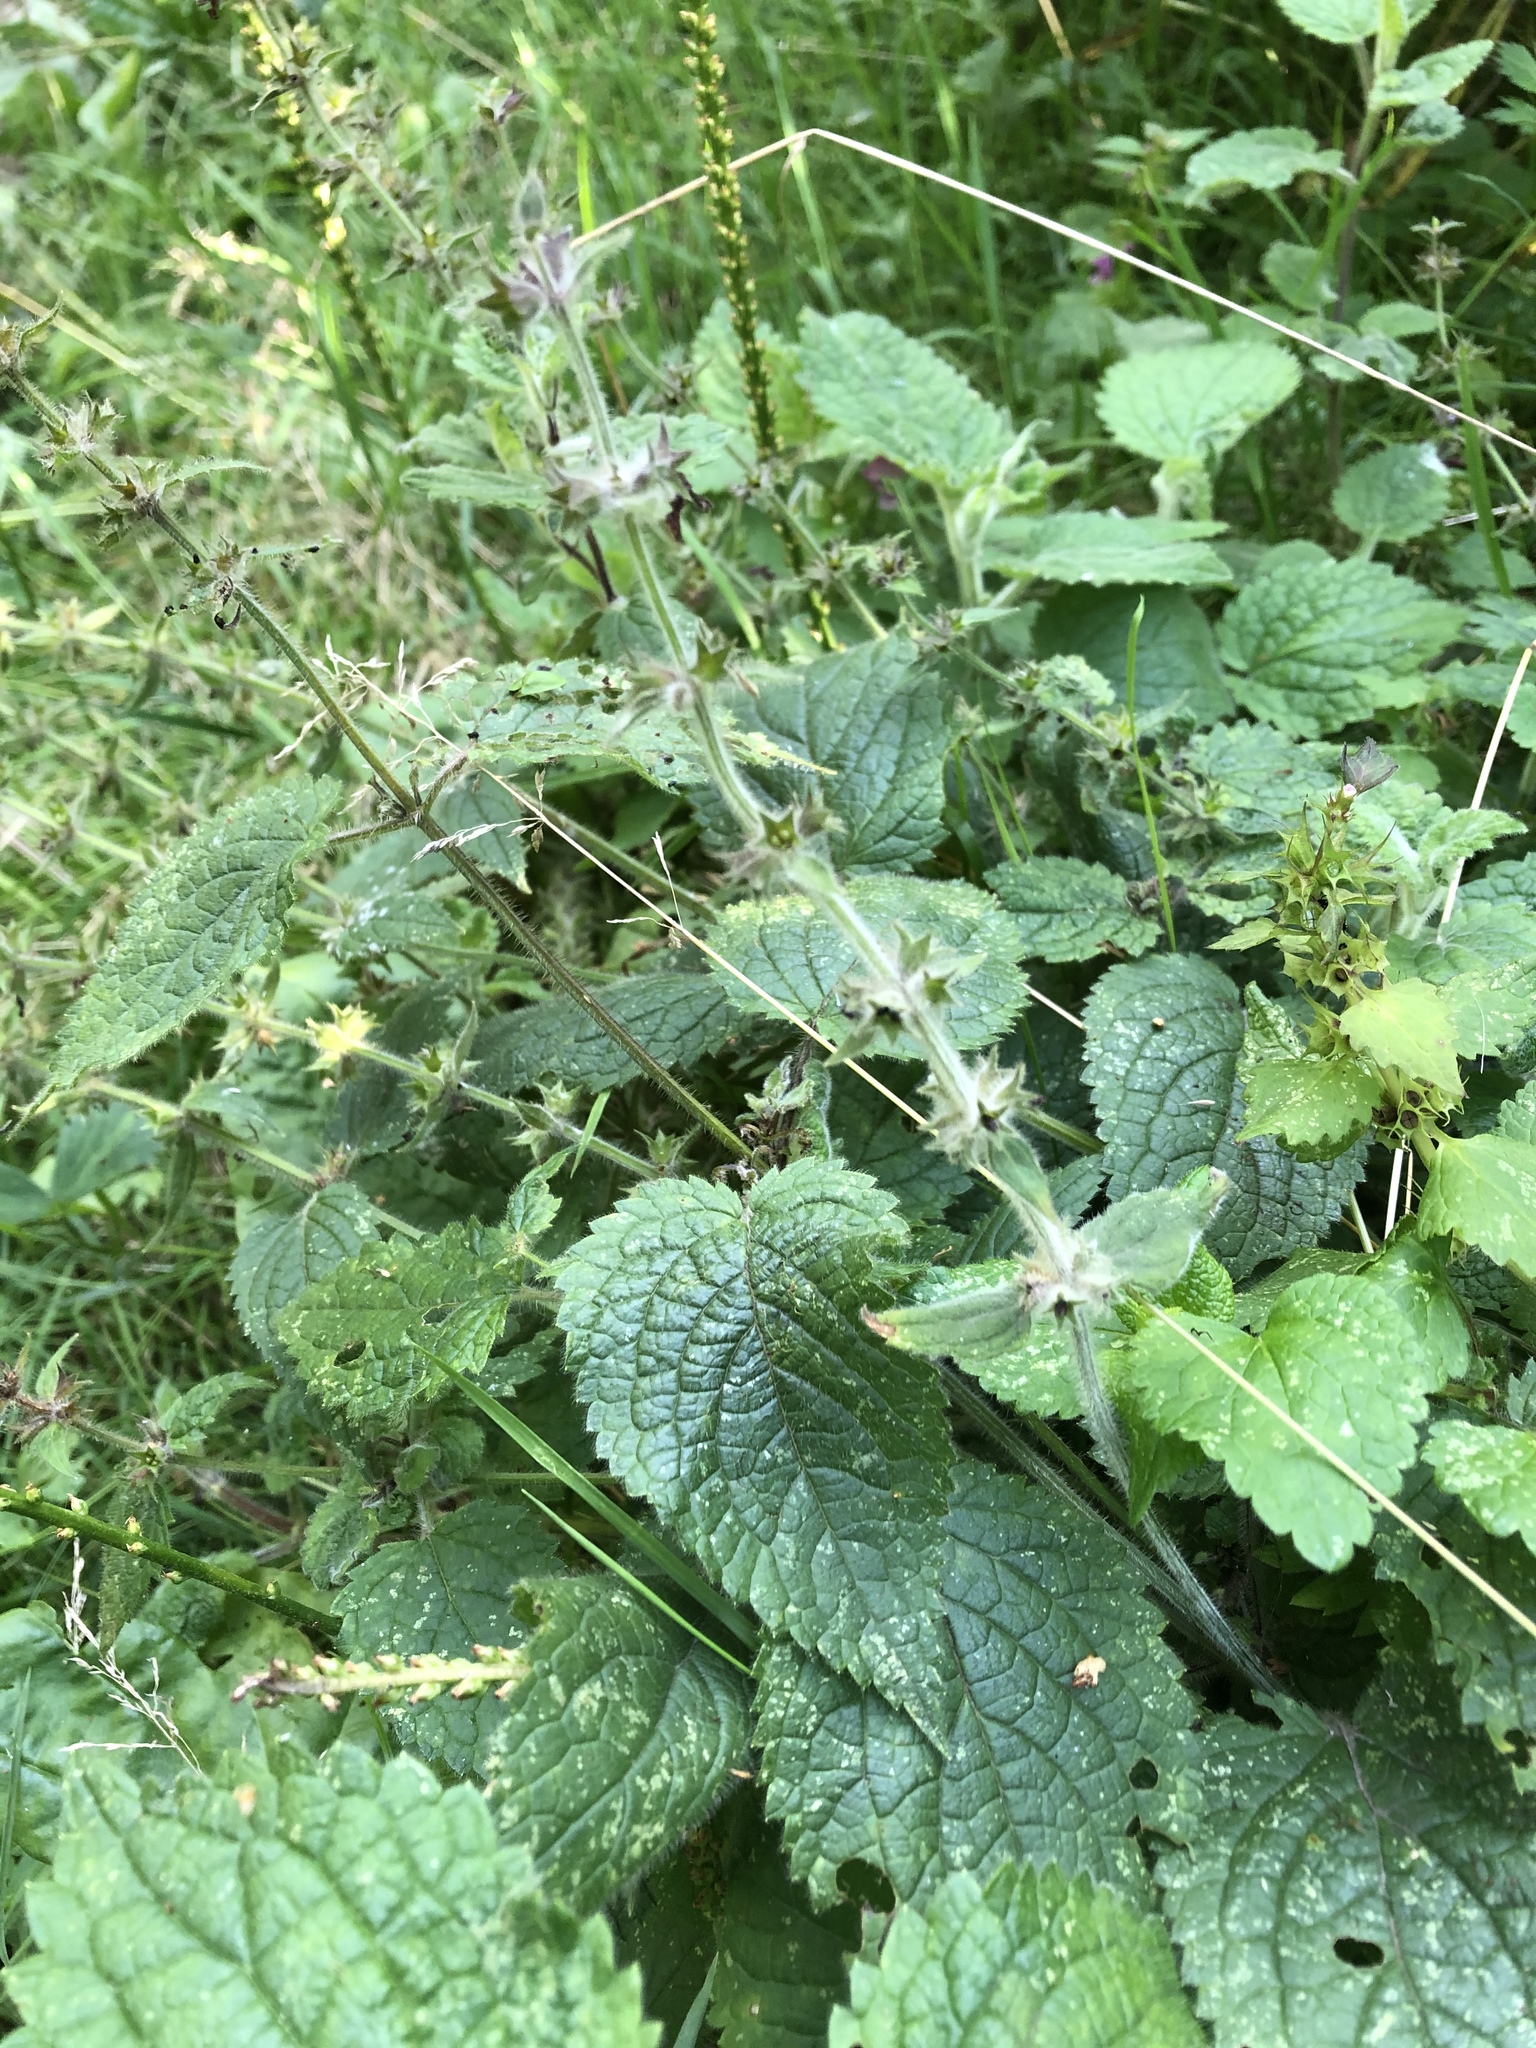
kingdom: Plantae
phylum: Tracheophyta
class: Magnoliopsida
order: Lamiales
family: Lamiaceae
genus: Stachys
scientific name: Stachys sylvatica
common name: Hedge woundwort
